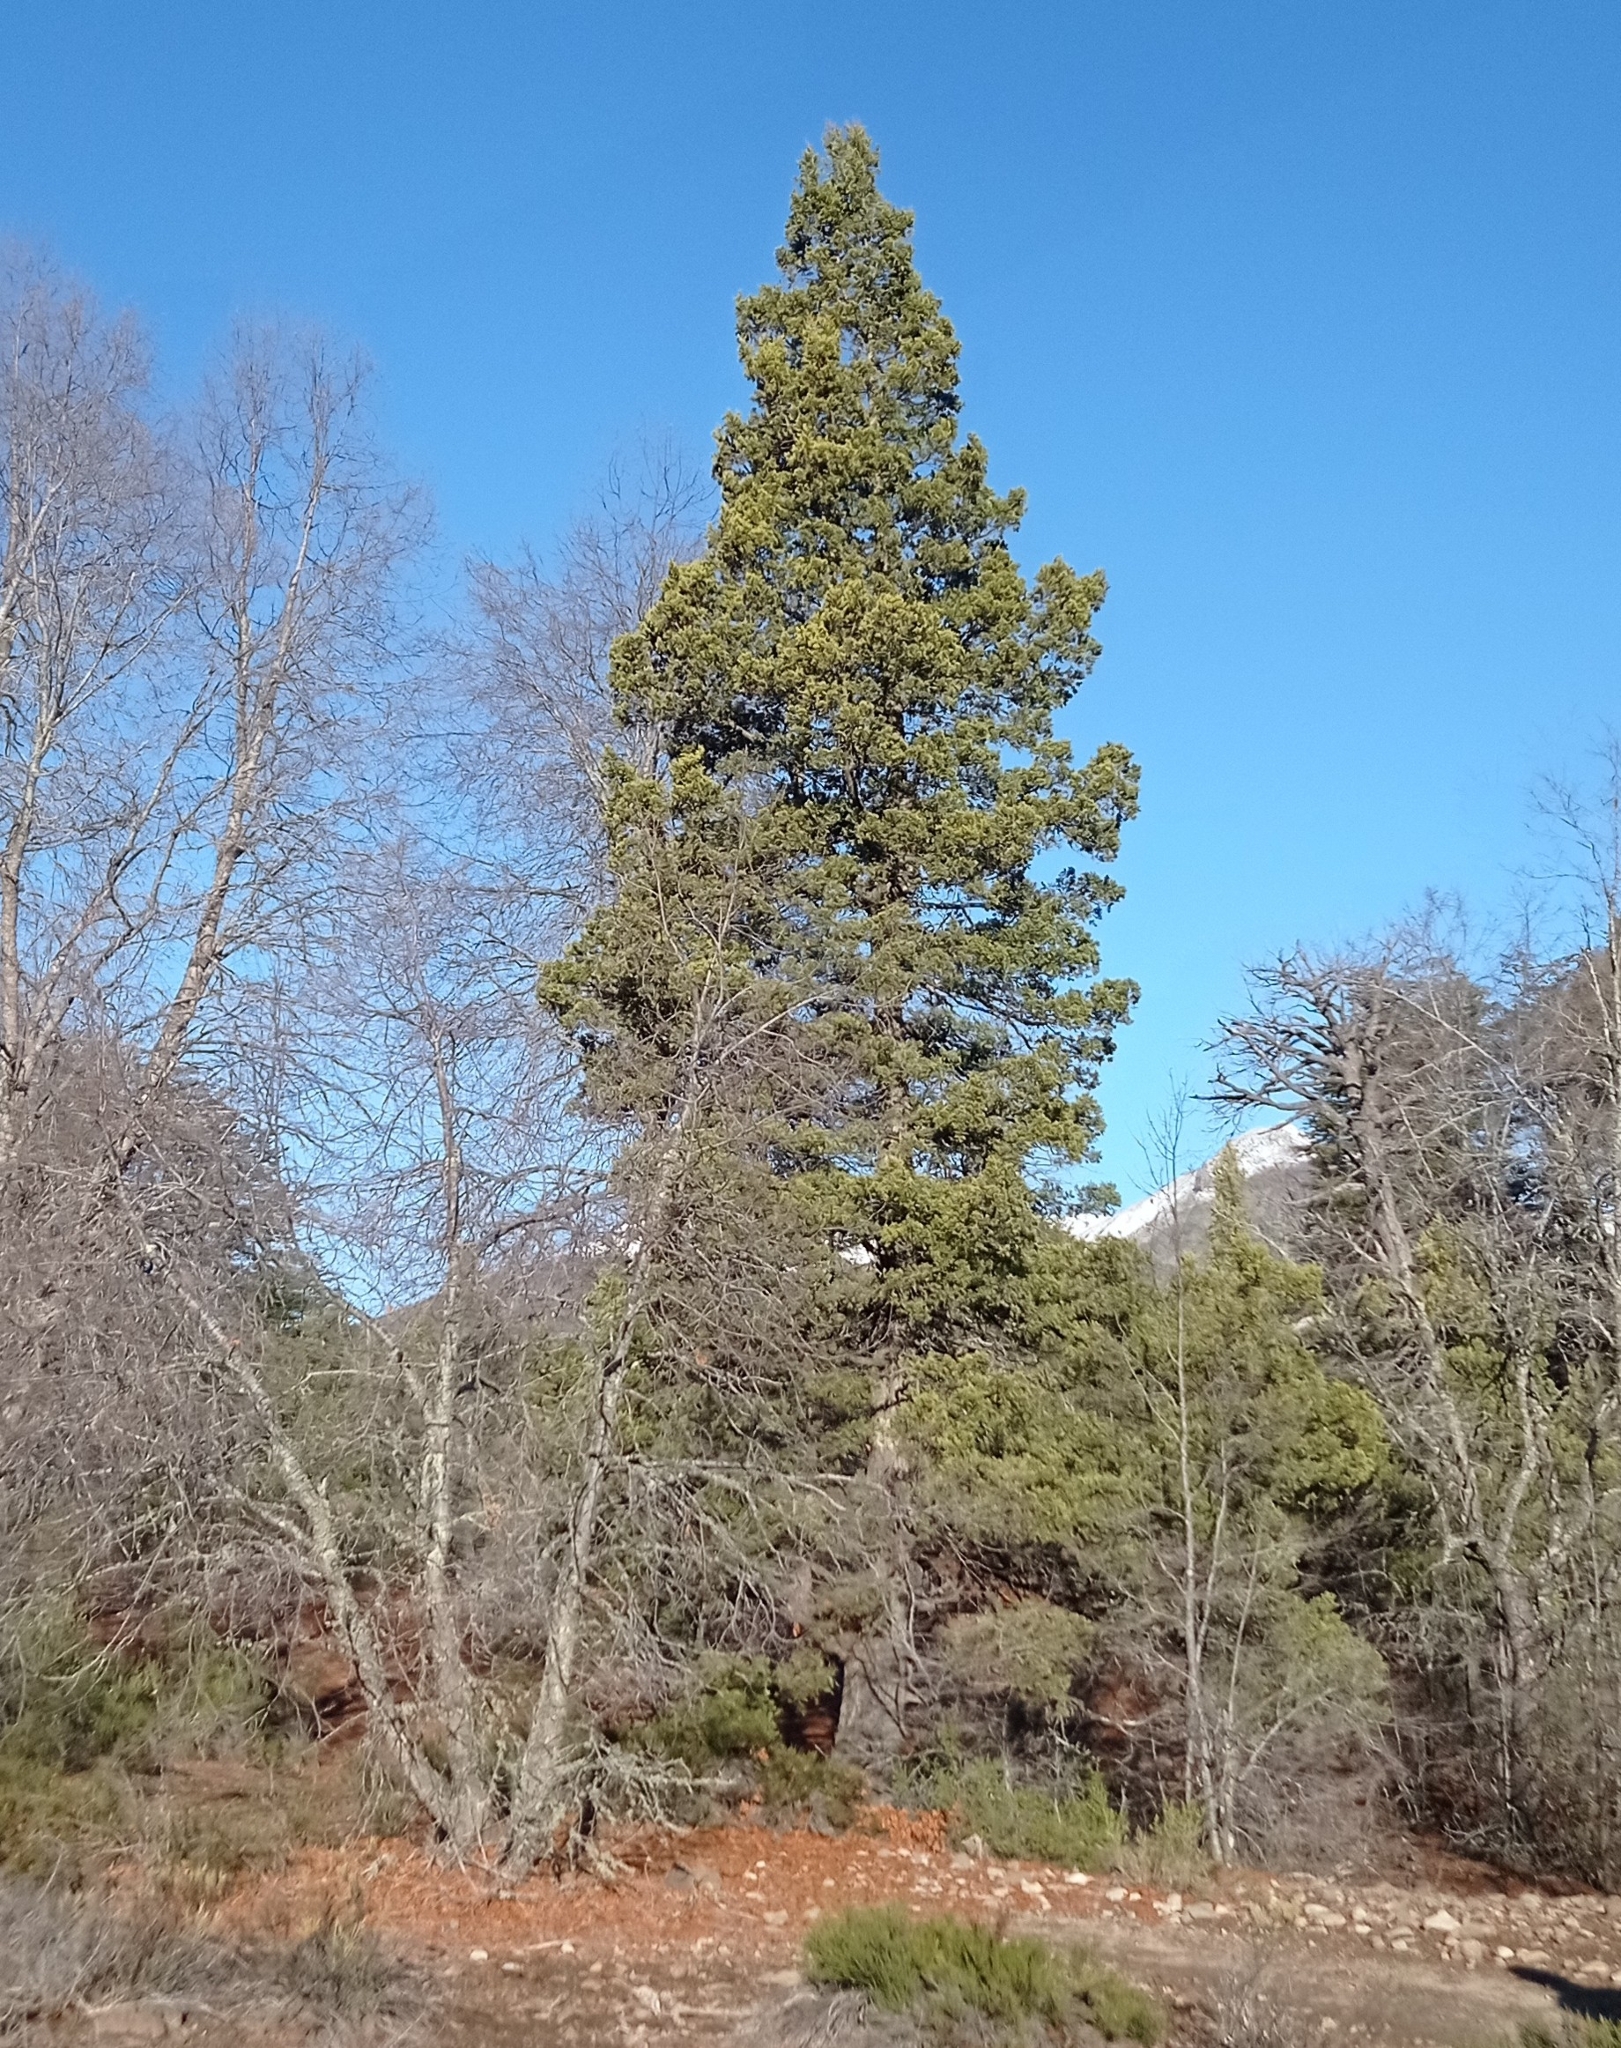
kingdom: Plantae
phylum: Tracheophyta
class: Pinopsida
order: Pinales
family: Cupressaceae
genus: Austrocedrus
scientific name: Austrocedrus chilensis
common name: Chilean incense-cedar
